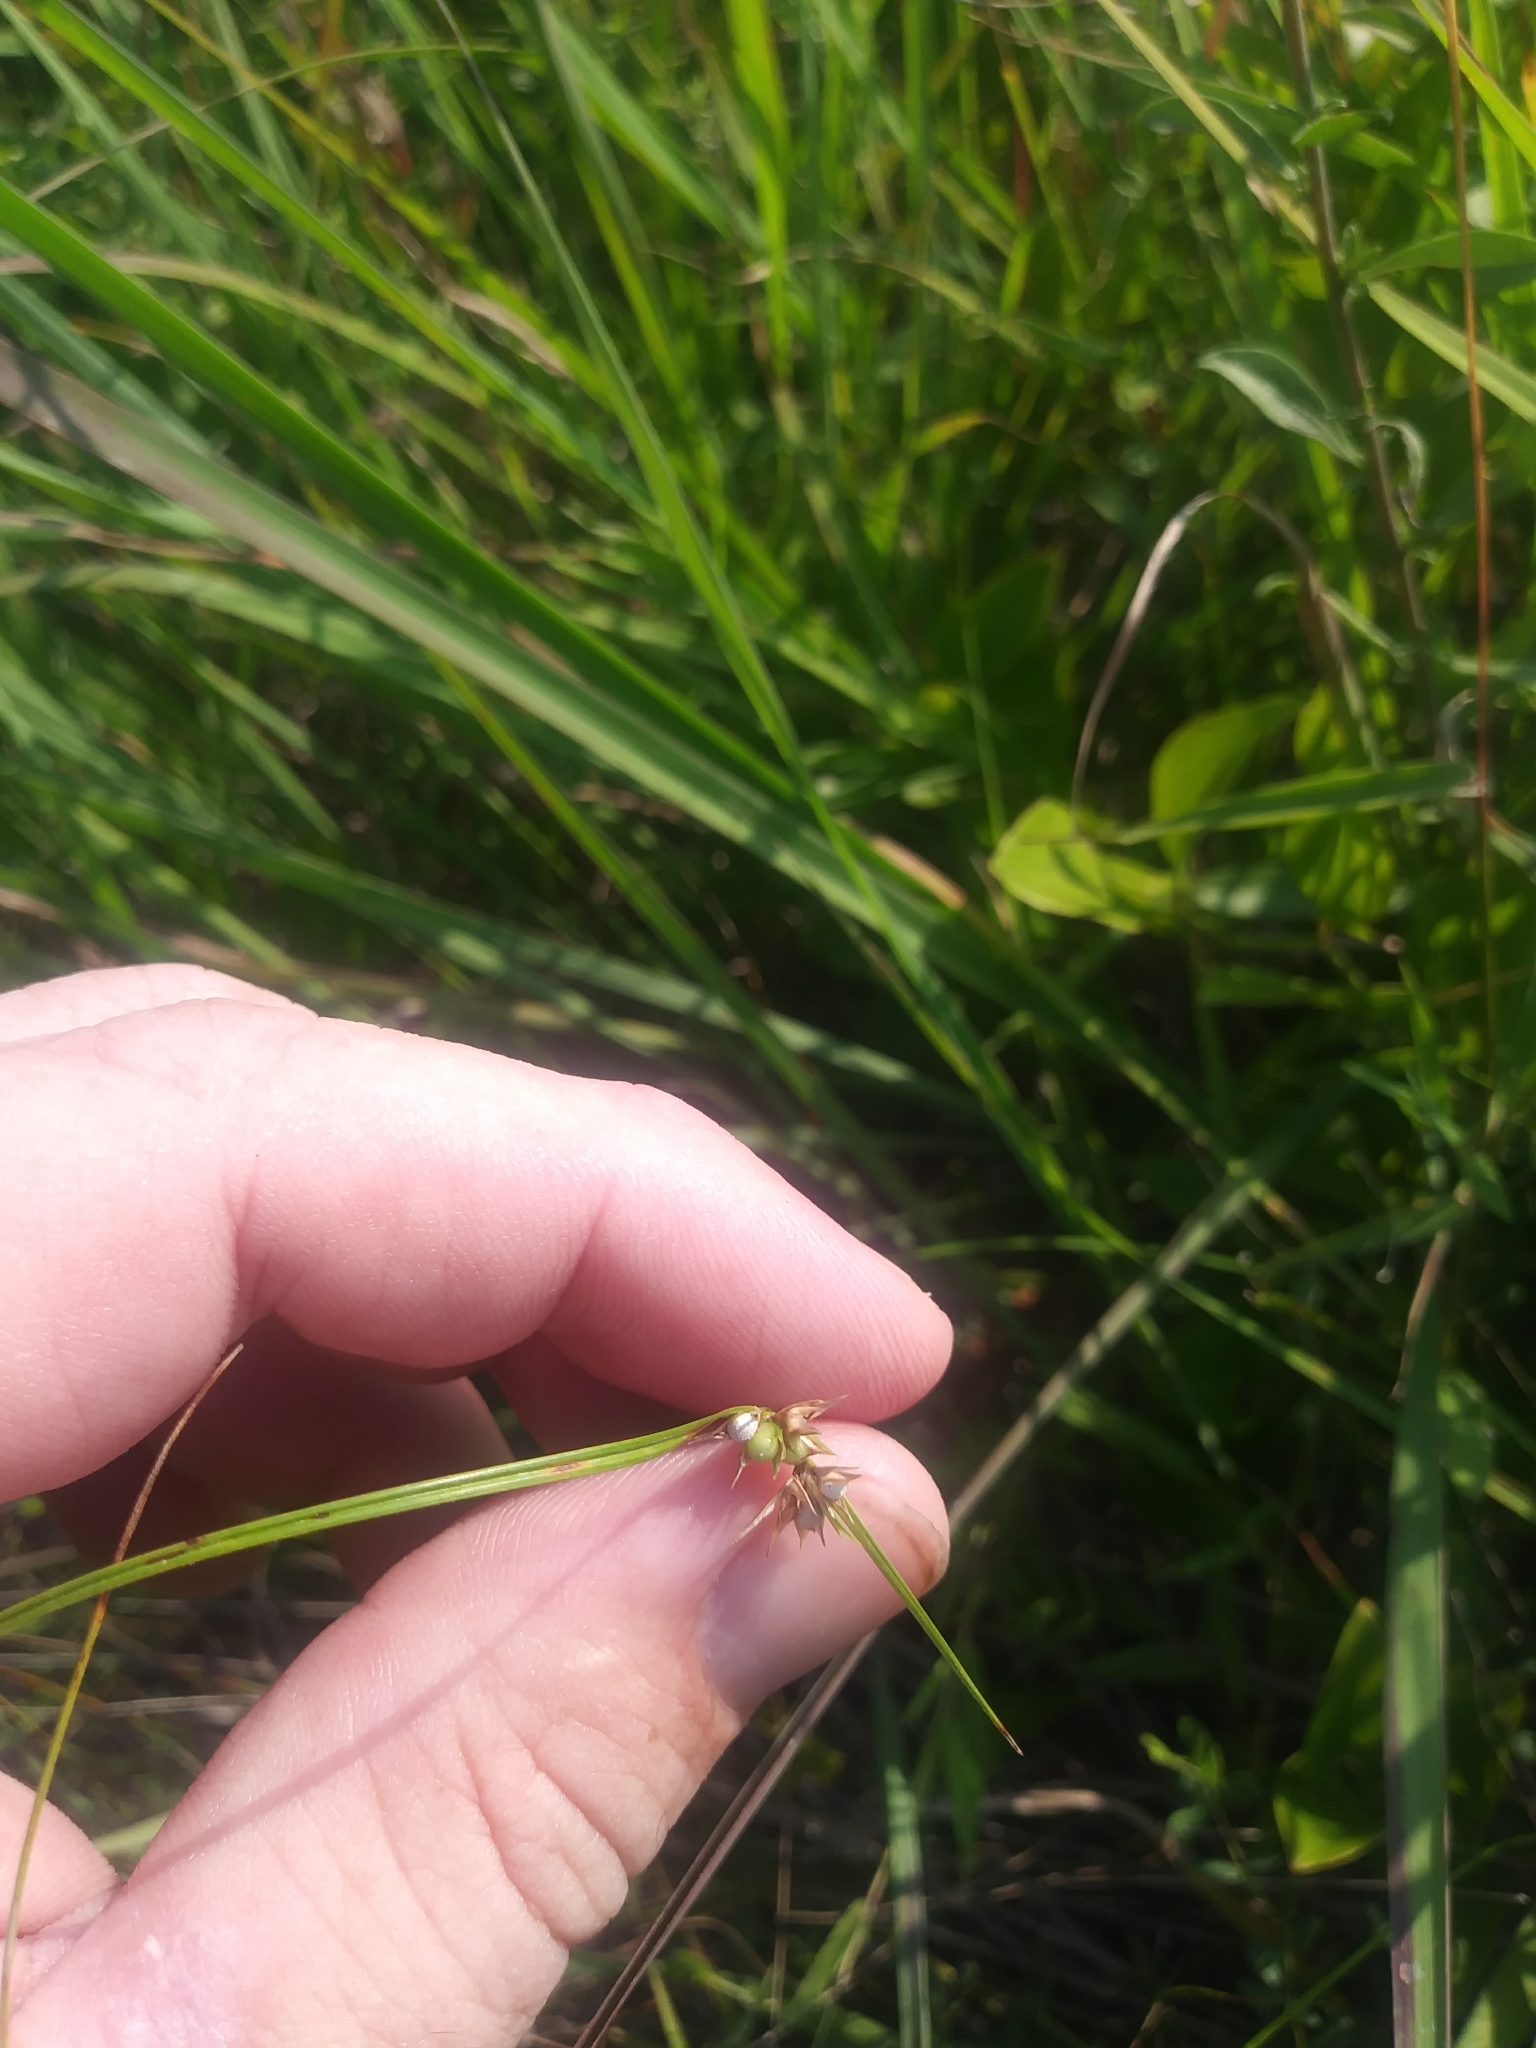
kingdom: Plantae
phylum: Tracheophyta
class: Liliopsida
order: Poales
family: Cyperaceae
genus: Scleria
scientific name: Scleria pauciflora
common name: Few-flowered nutrush
